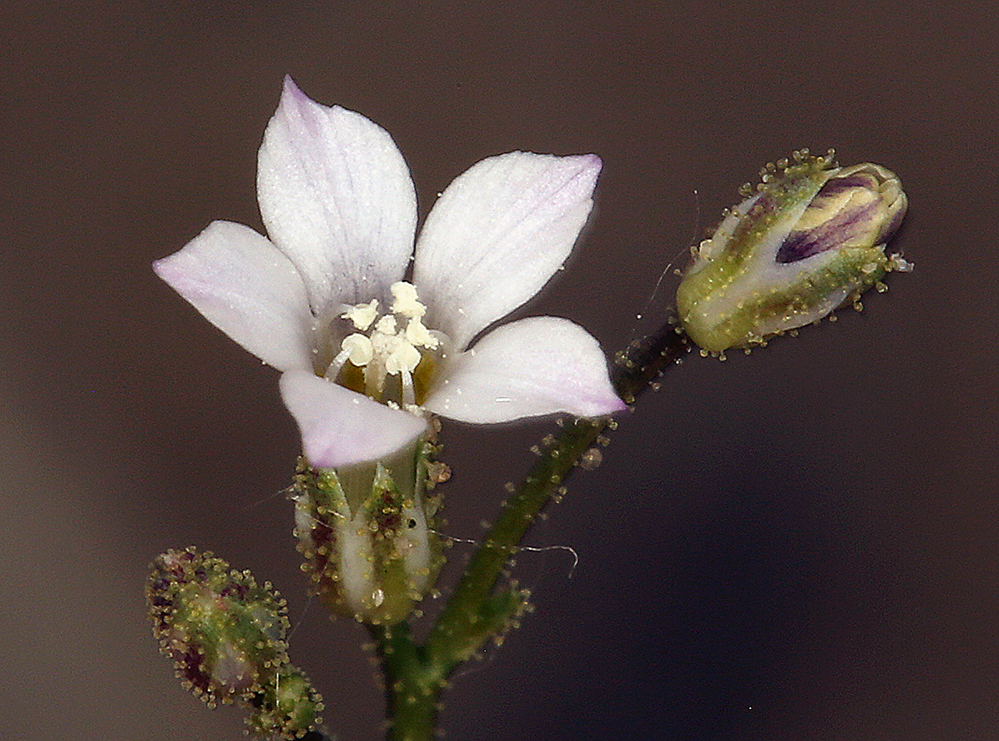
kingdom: Plantae
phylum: Tracheophyta
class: Magnoliopsida
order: Ericales
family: Polemoniaceae
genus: Aliciella
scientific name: Aliciella lottiae
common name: Lott's gilia
